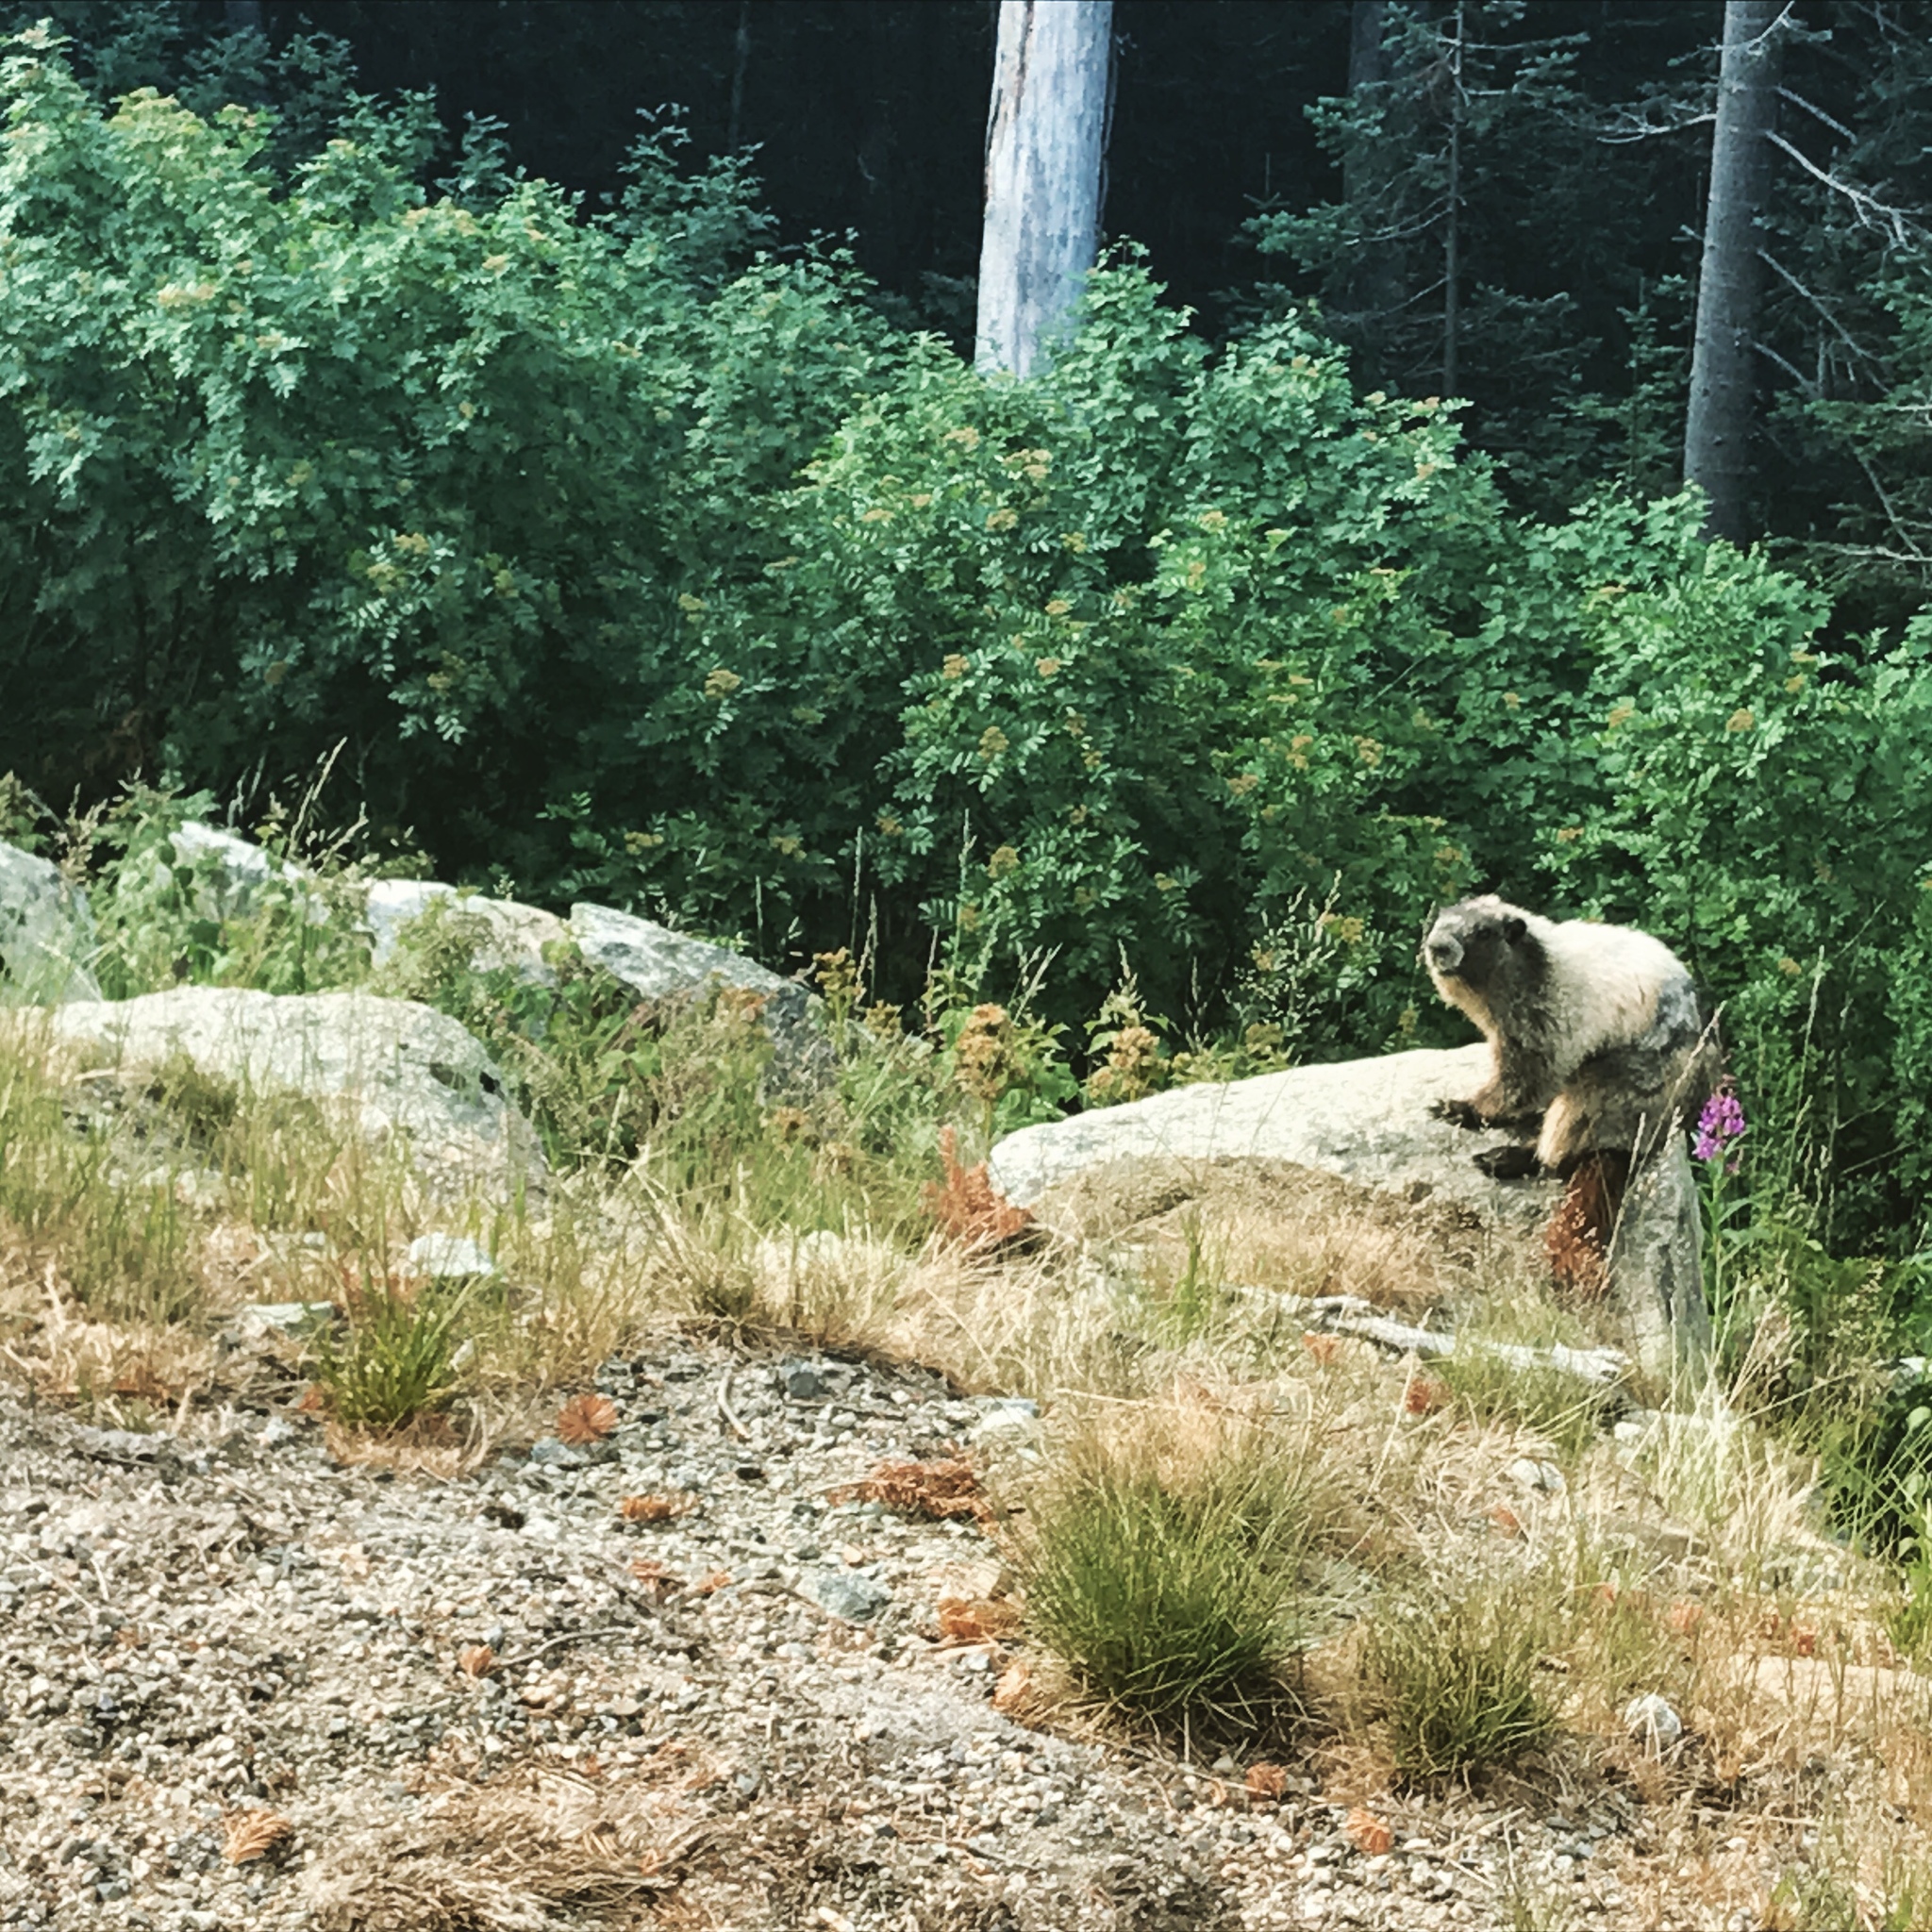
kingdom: Animalia
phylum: Chordata
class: Mammalia
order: Rodentia
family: Sciuridae
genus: Marmota
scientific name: Marmota caligata
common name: Hoary marmot
